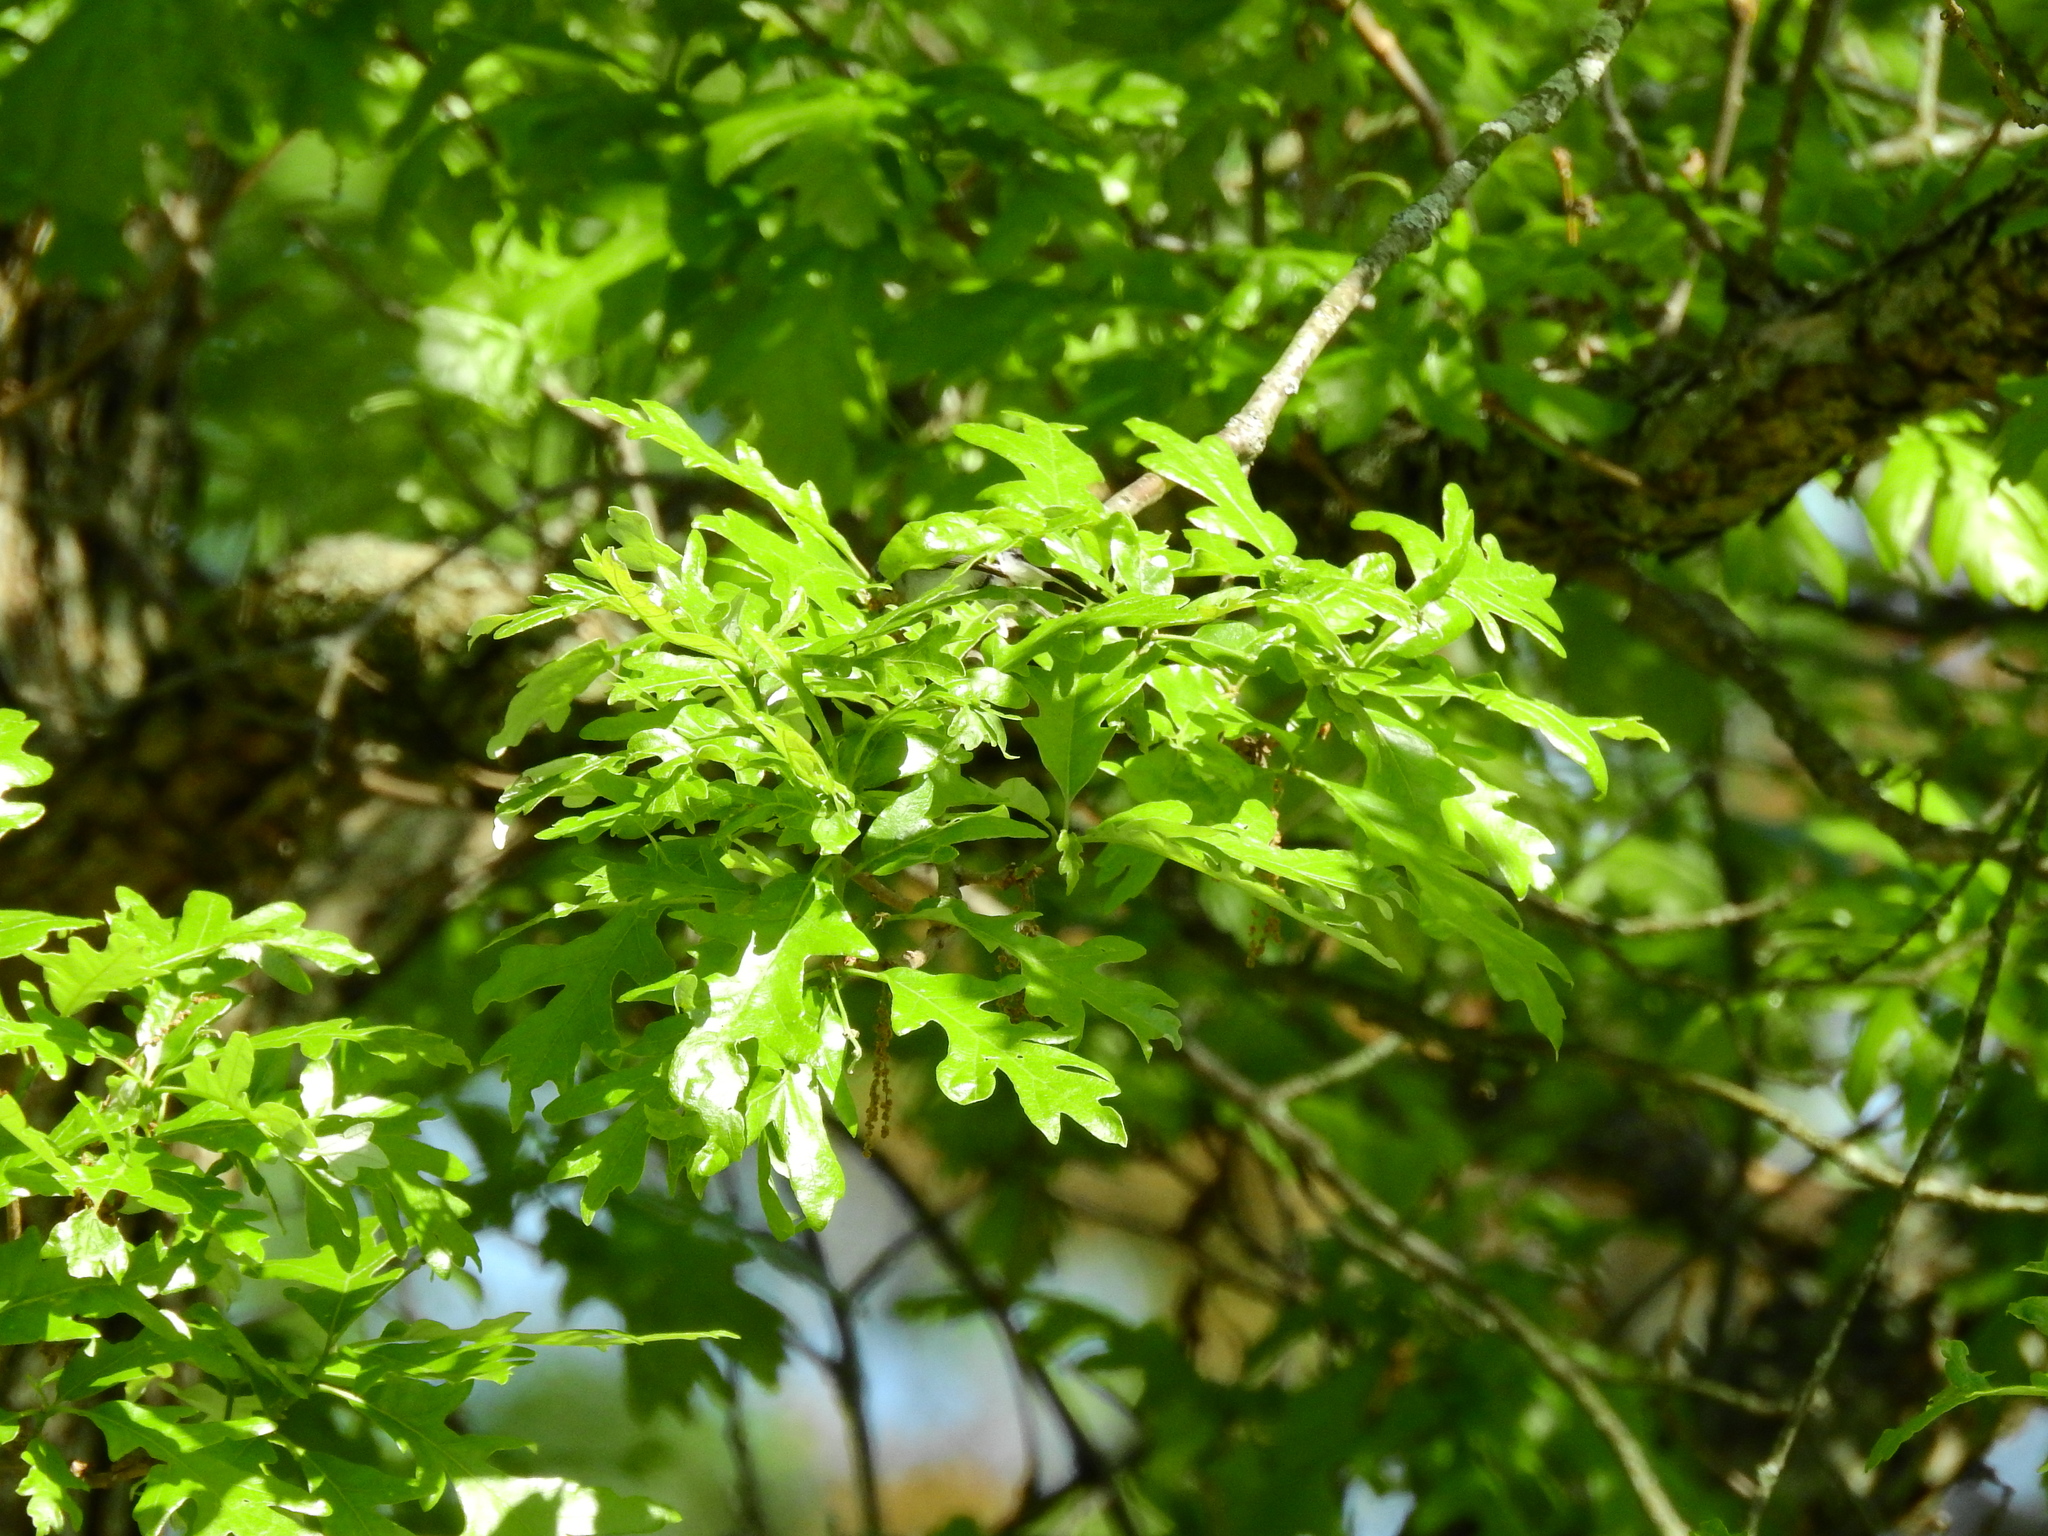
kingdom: Animalia
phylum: Chordata
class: Aves
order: Passeriformes
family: Polioptilidae
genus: Polioptila
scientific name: Polioptila caerulea
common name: Blue-gray gnatcatcher
